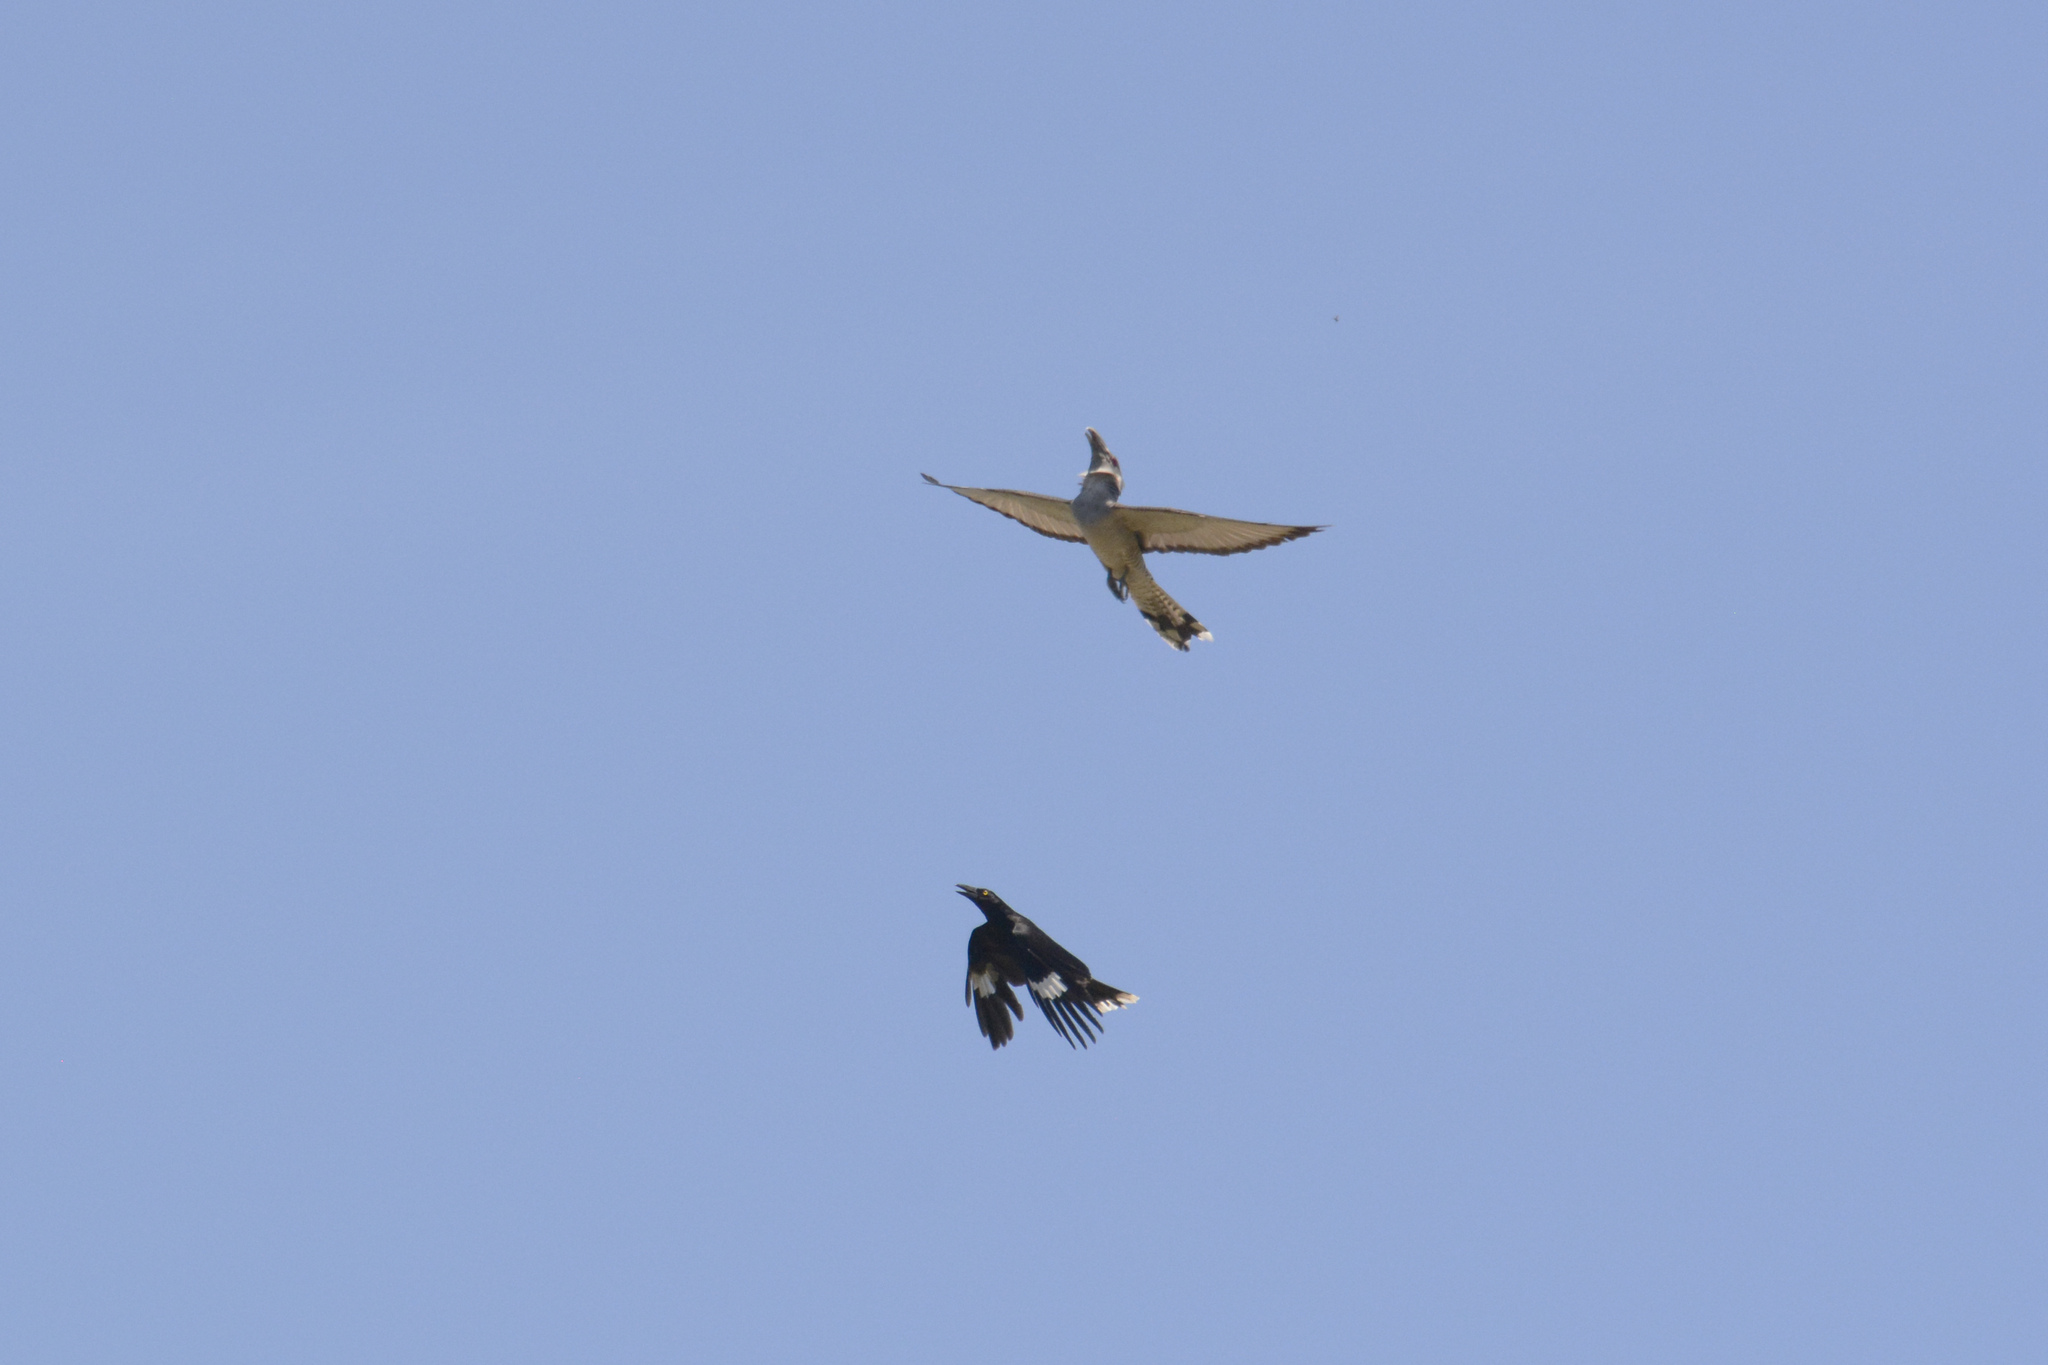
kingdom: Animalia
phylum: Chordata
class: Aves
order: Passeriformes
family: Cracticidae
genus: Strepera
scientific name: Strepera graculina
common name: Pied currawong
